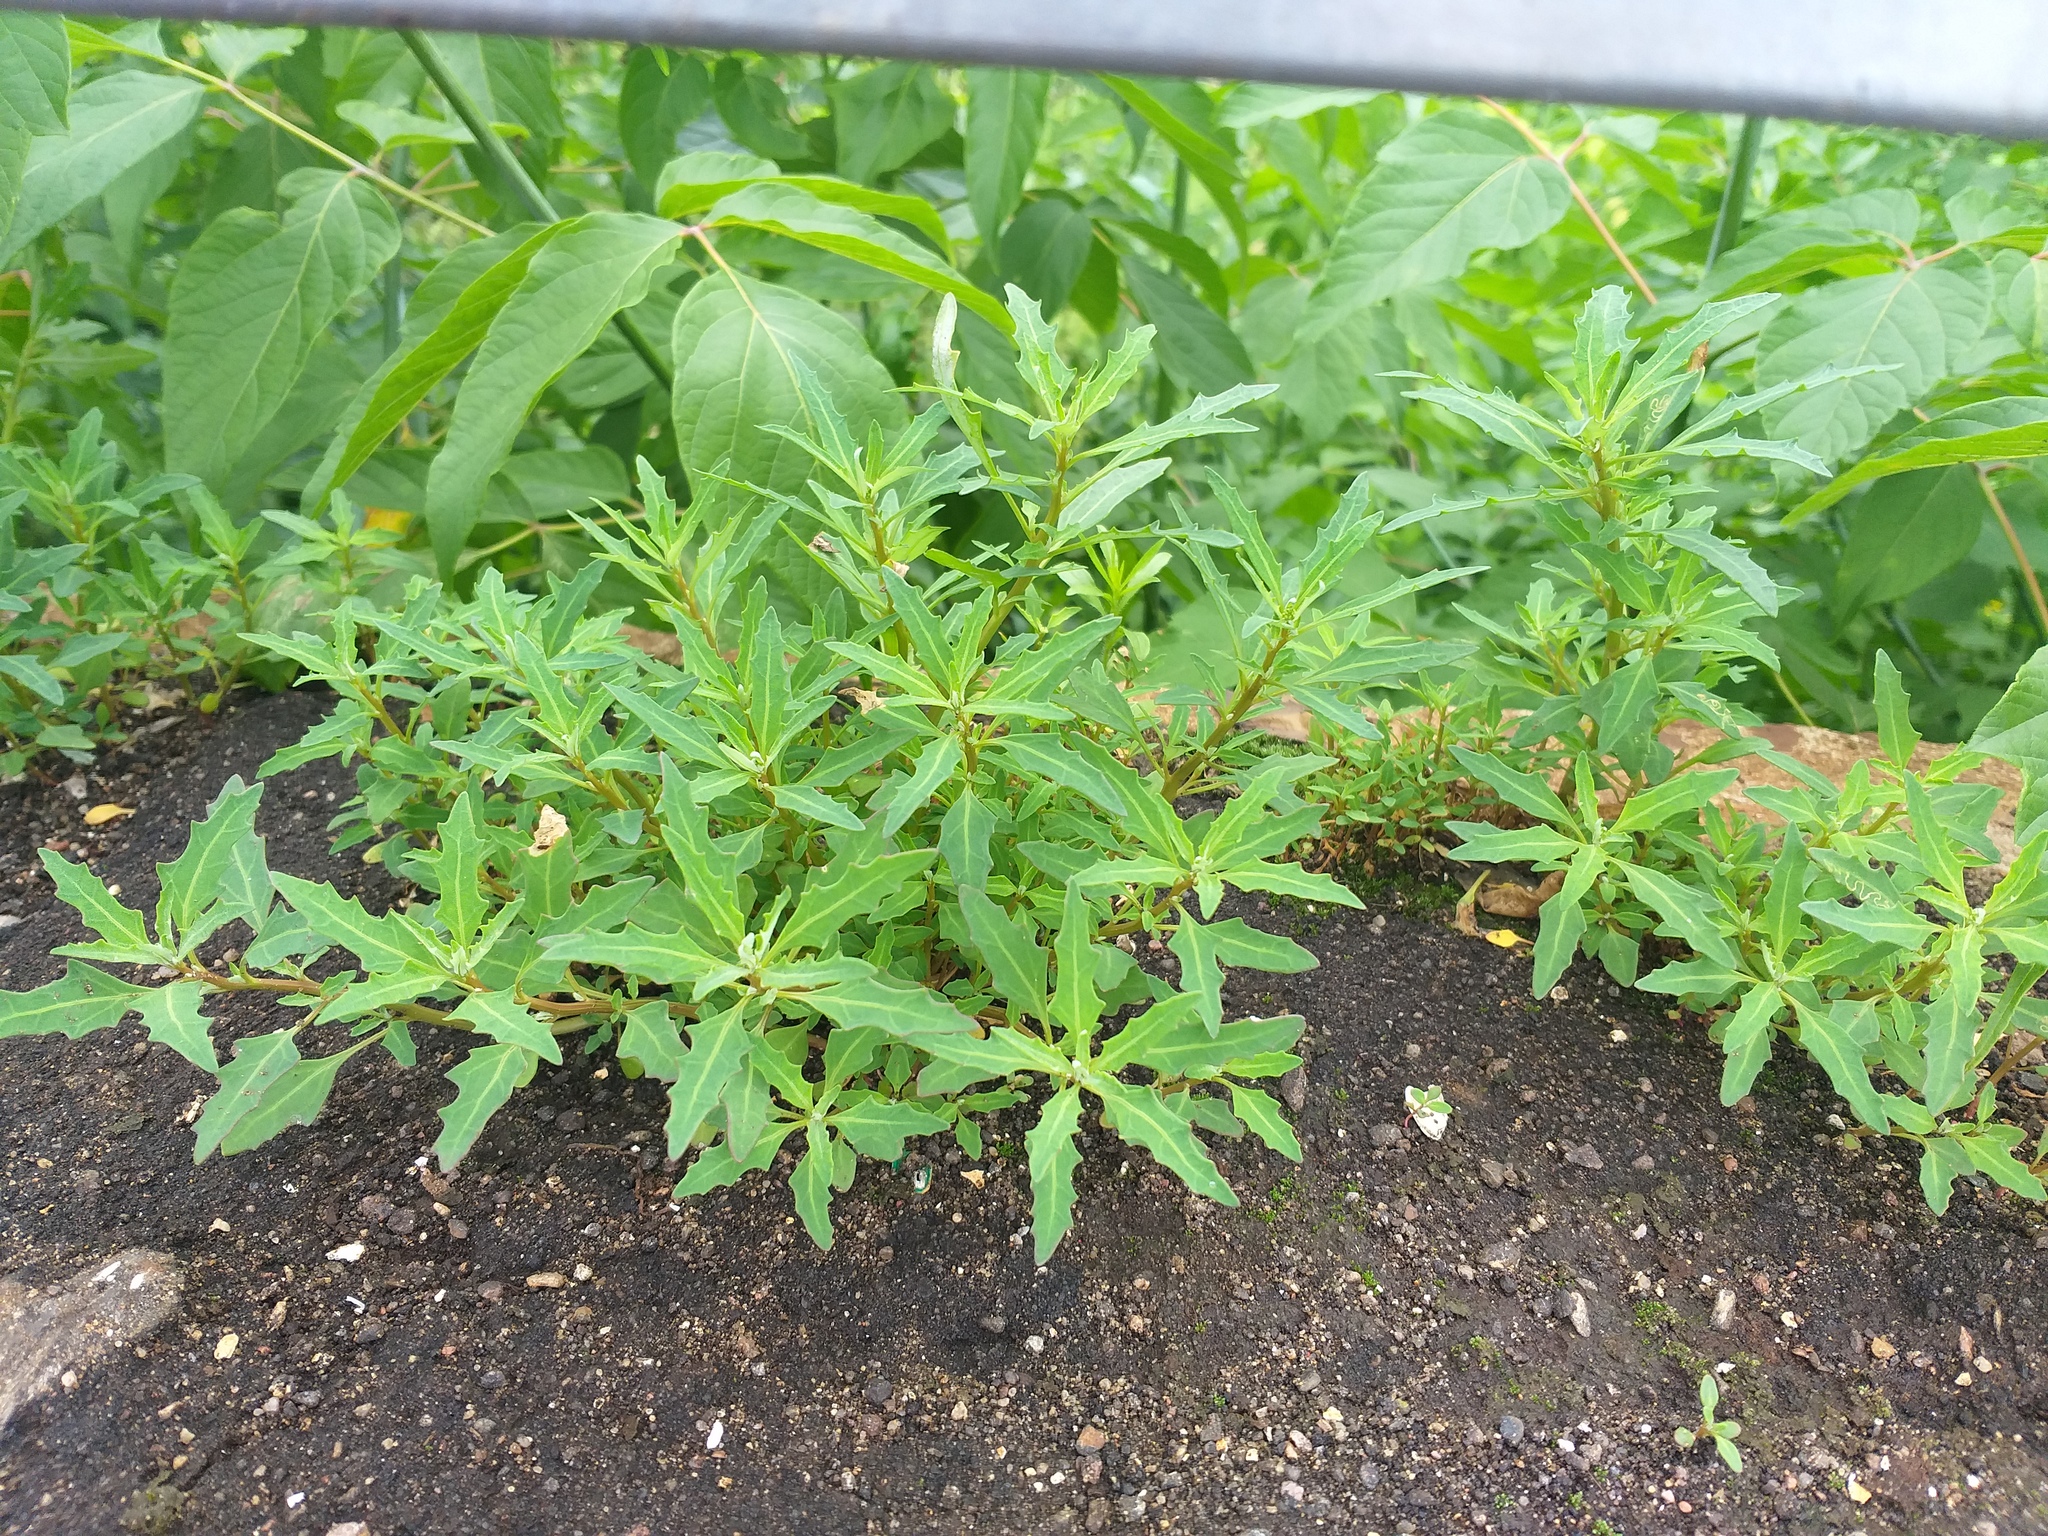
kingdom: Plantae
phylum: Tracheophyta
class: Magnoliopsida
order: Caryophyllales
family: Amaranthaceae
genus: Oxybasis
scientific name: Oxybasis glauca
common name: Glaucous goosefoot
